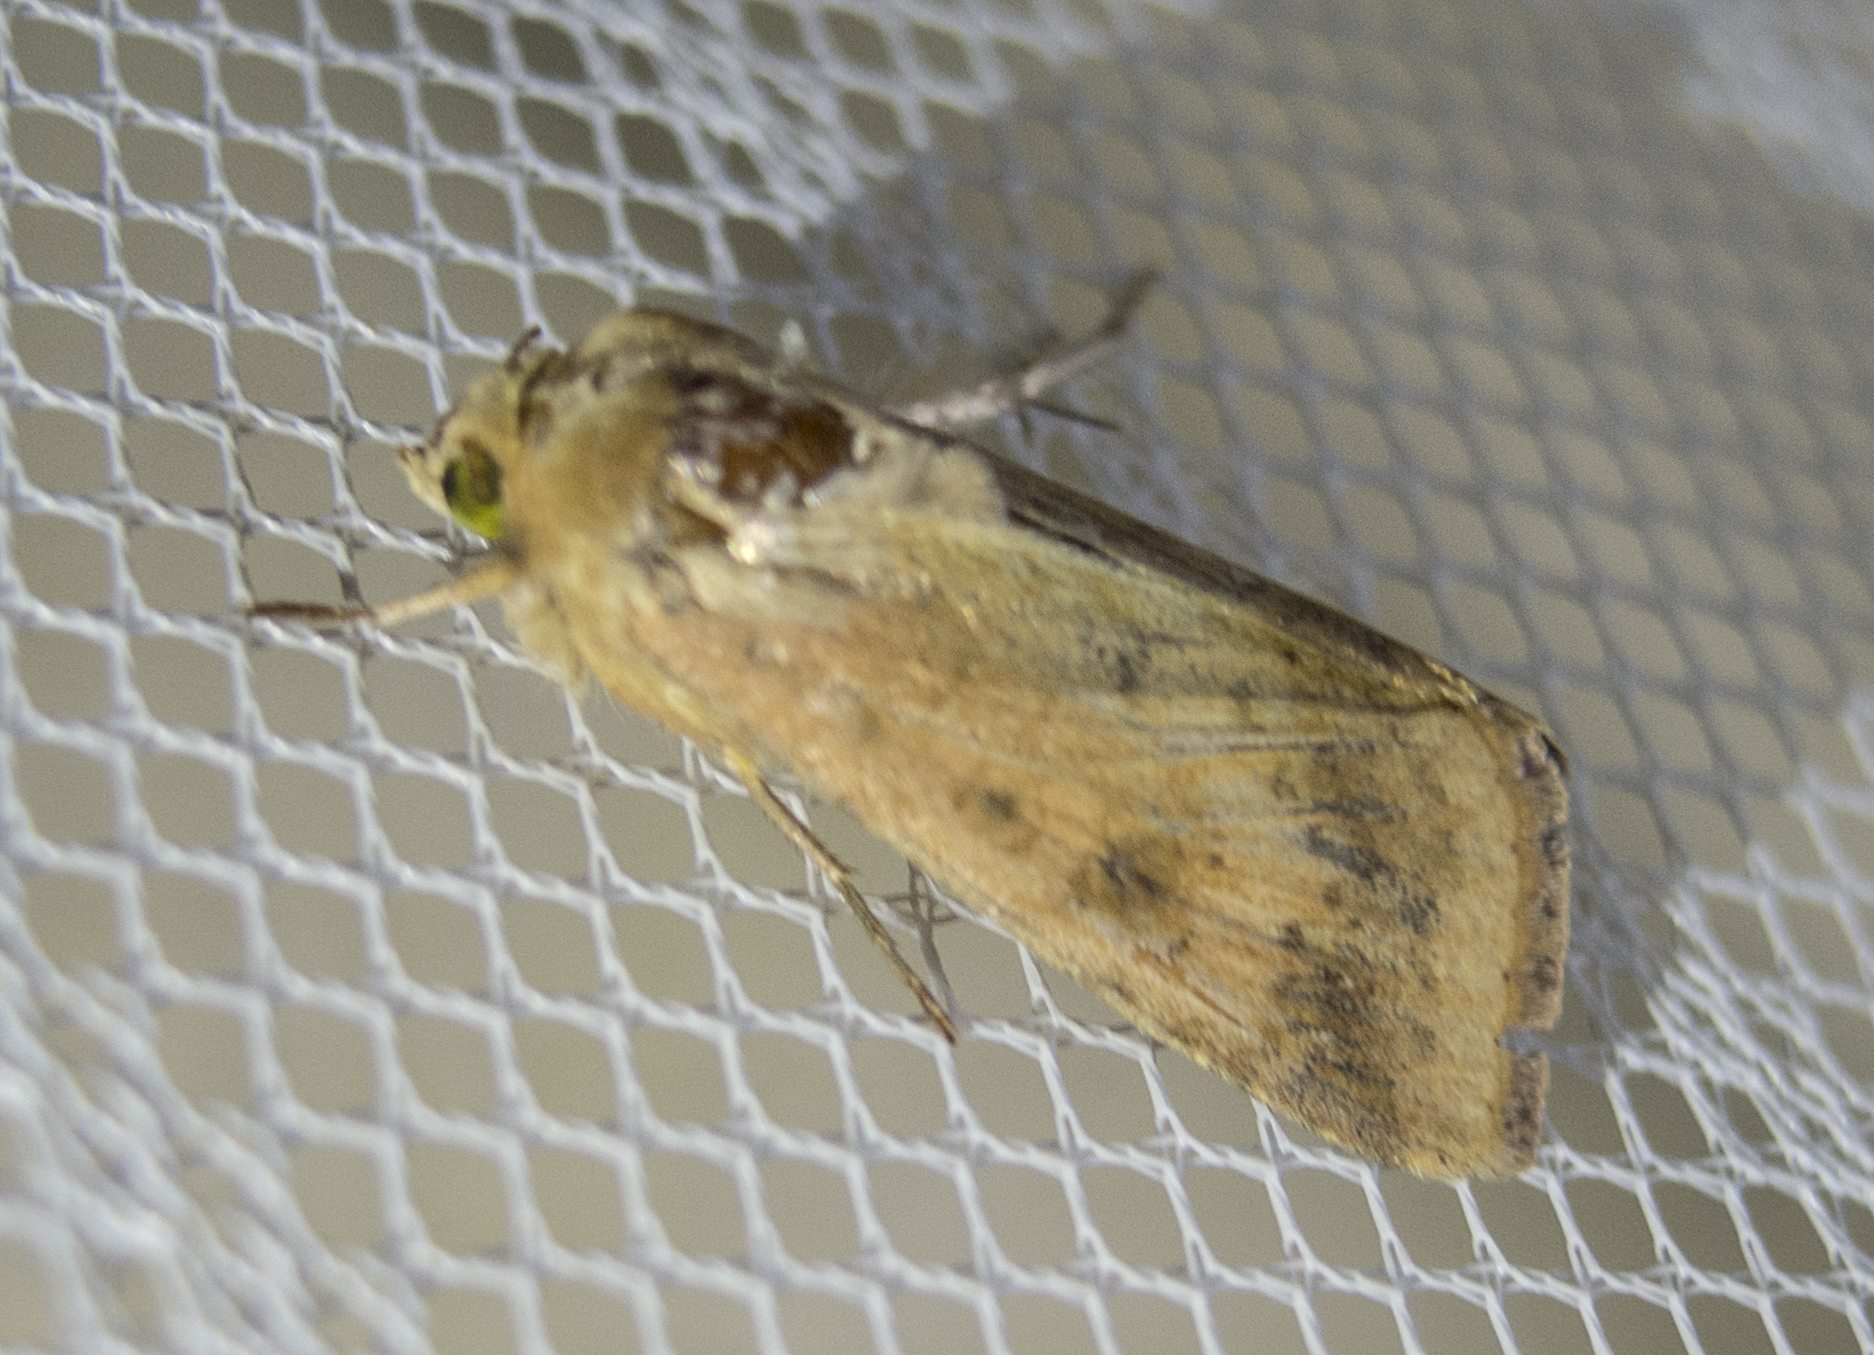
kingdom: Animalia
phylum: Arthropoda
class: Insecta
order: Lepidoptera
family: Noctuidae
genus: Helicoverpa
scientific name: Helicoverpa armigera
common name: Cotton bollworm
